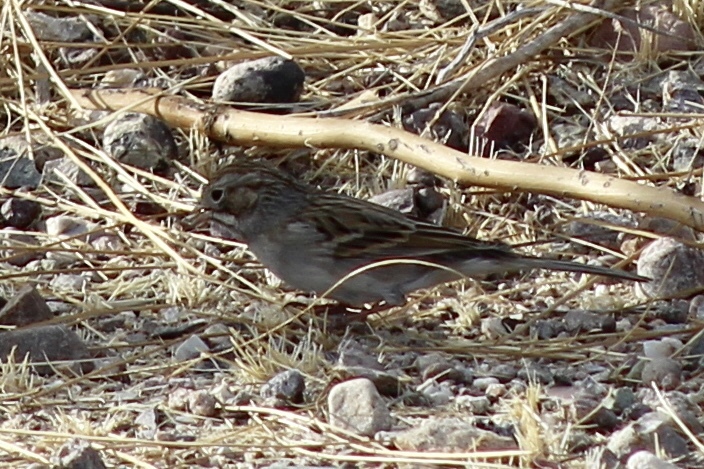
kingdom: Animalia
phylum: Chordata
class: Aves
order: Passeriformes
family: Passerellidae
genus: Spizella
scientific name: Spizella breweri
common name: Brewer's sparrow
